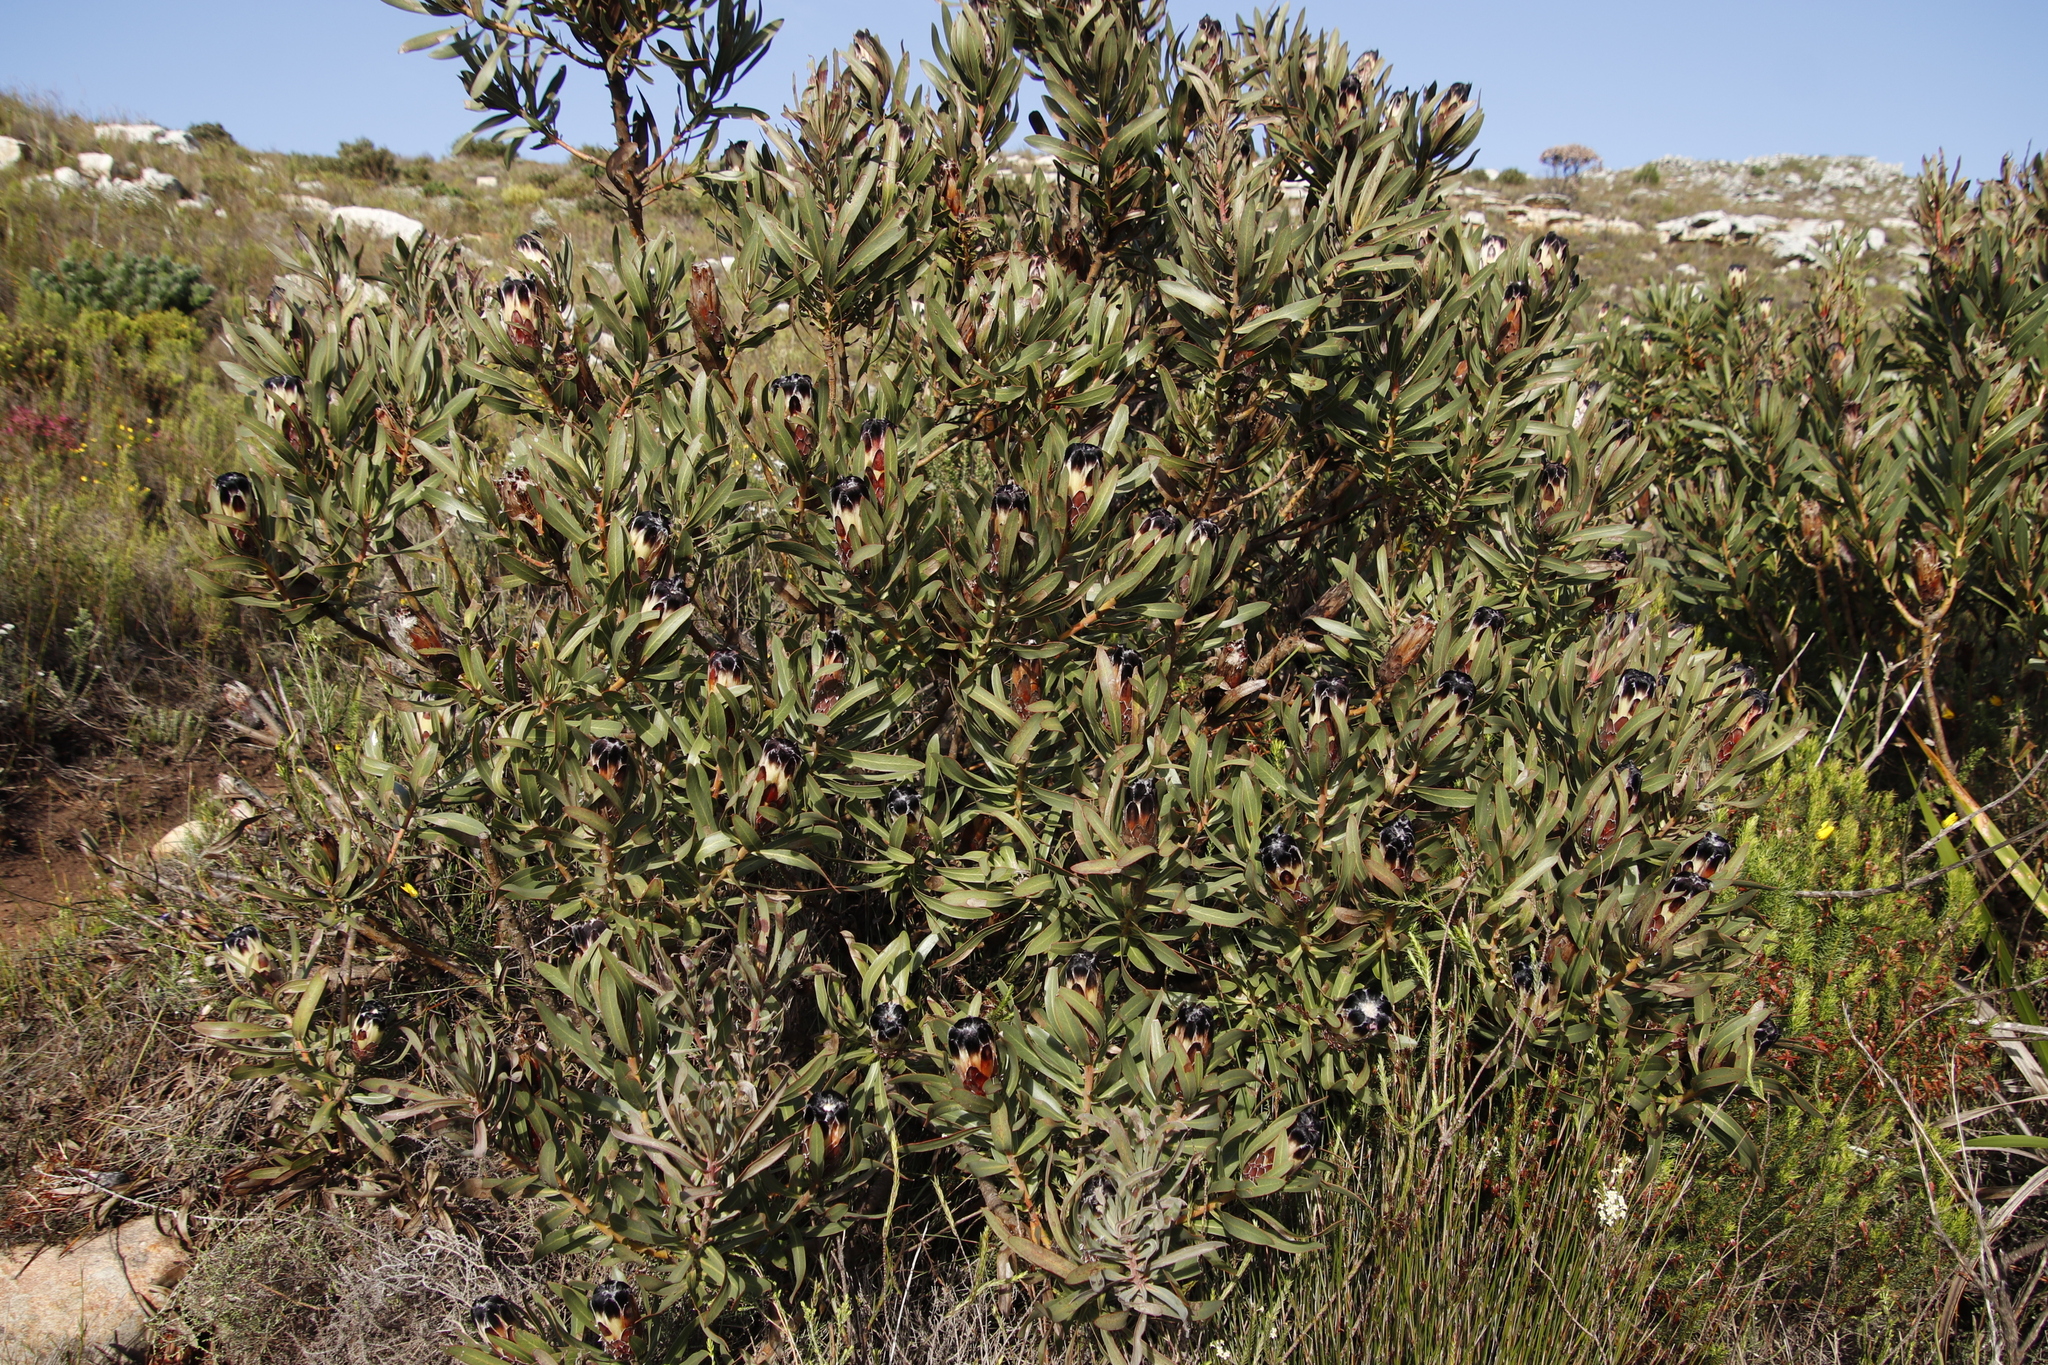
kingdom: Plantae
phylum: Tracheophyta
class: Magnoliopsida
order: Proteales
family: Proteaceae
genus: Protea
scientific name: Protea lepidocarpodendron
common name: Black-bearded protea
